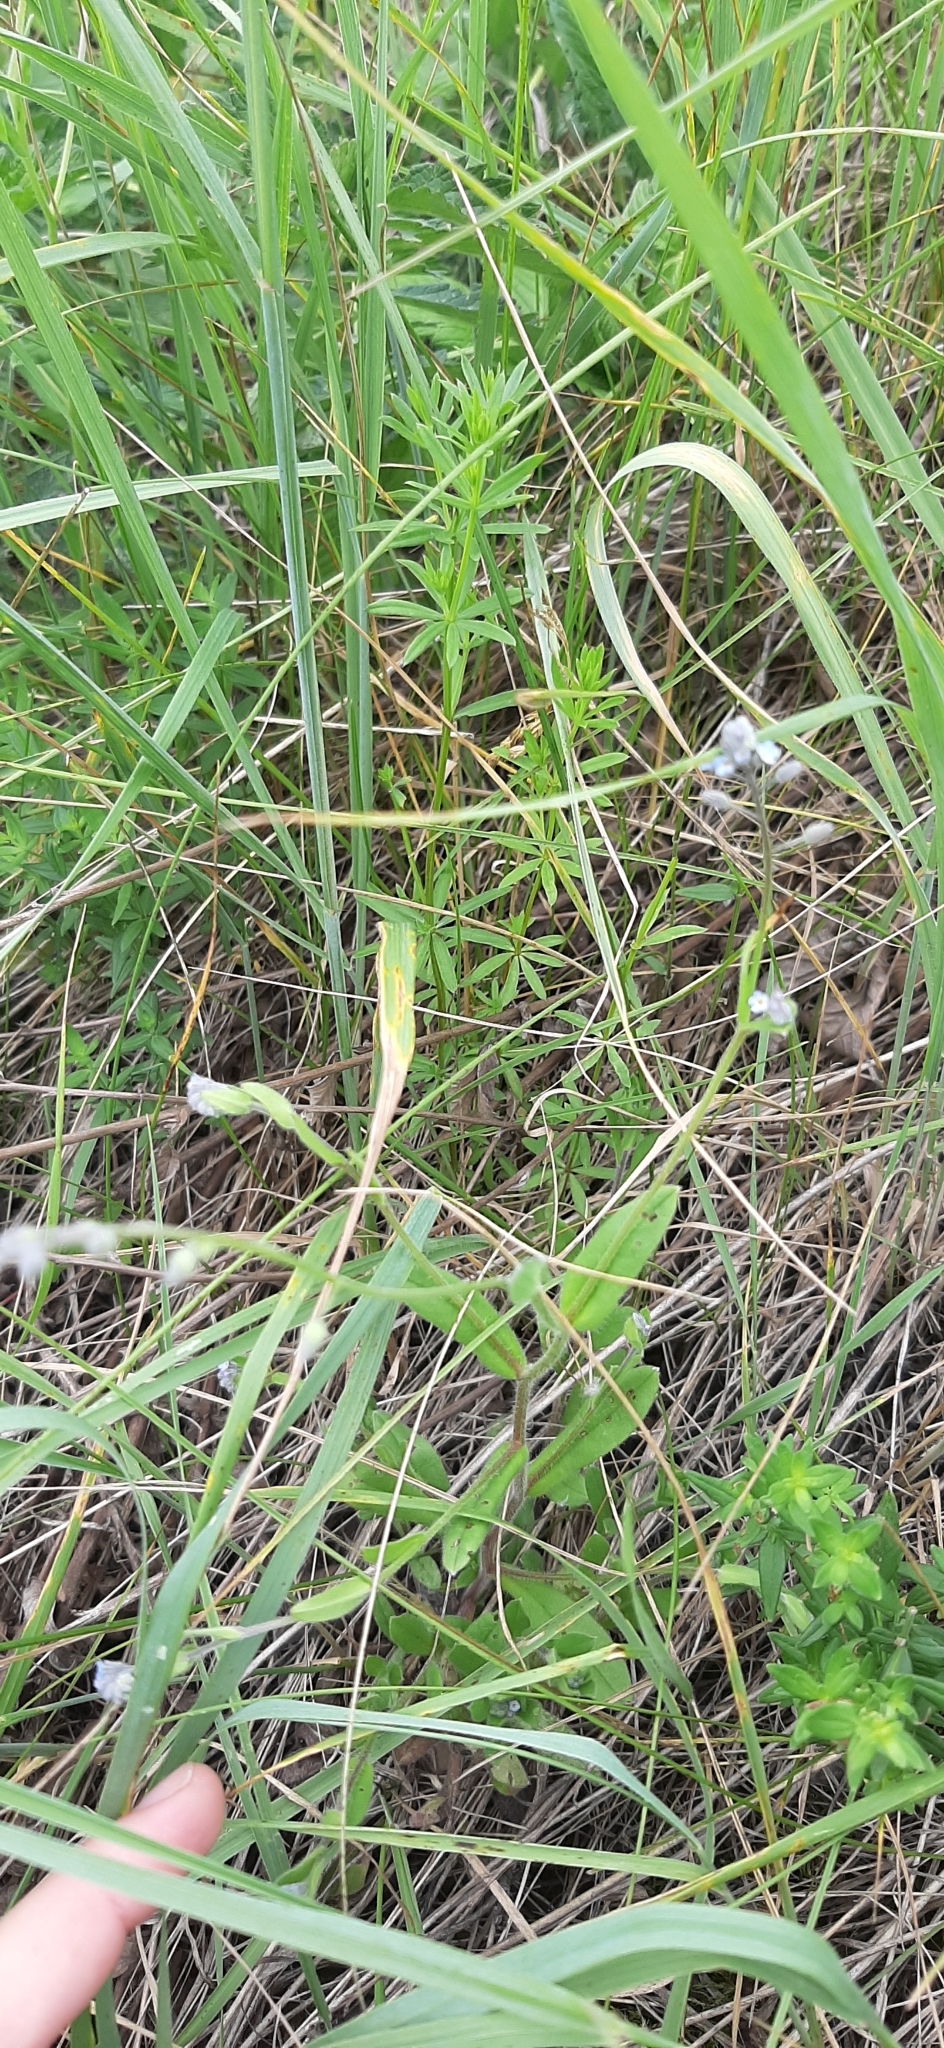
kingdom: Plantae
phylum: Tracheophyta
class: Magnoliopsida
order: Boraginales
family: Boraginaceae
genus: Myosotis
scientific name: Myosotis arvensis
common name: Field forget-me-not
